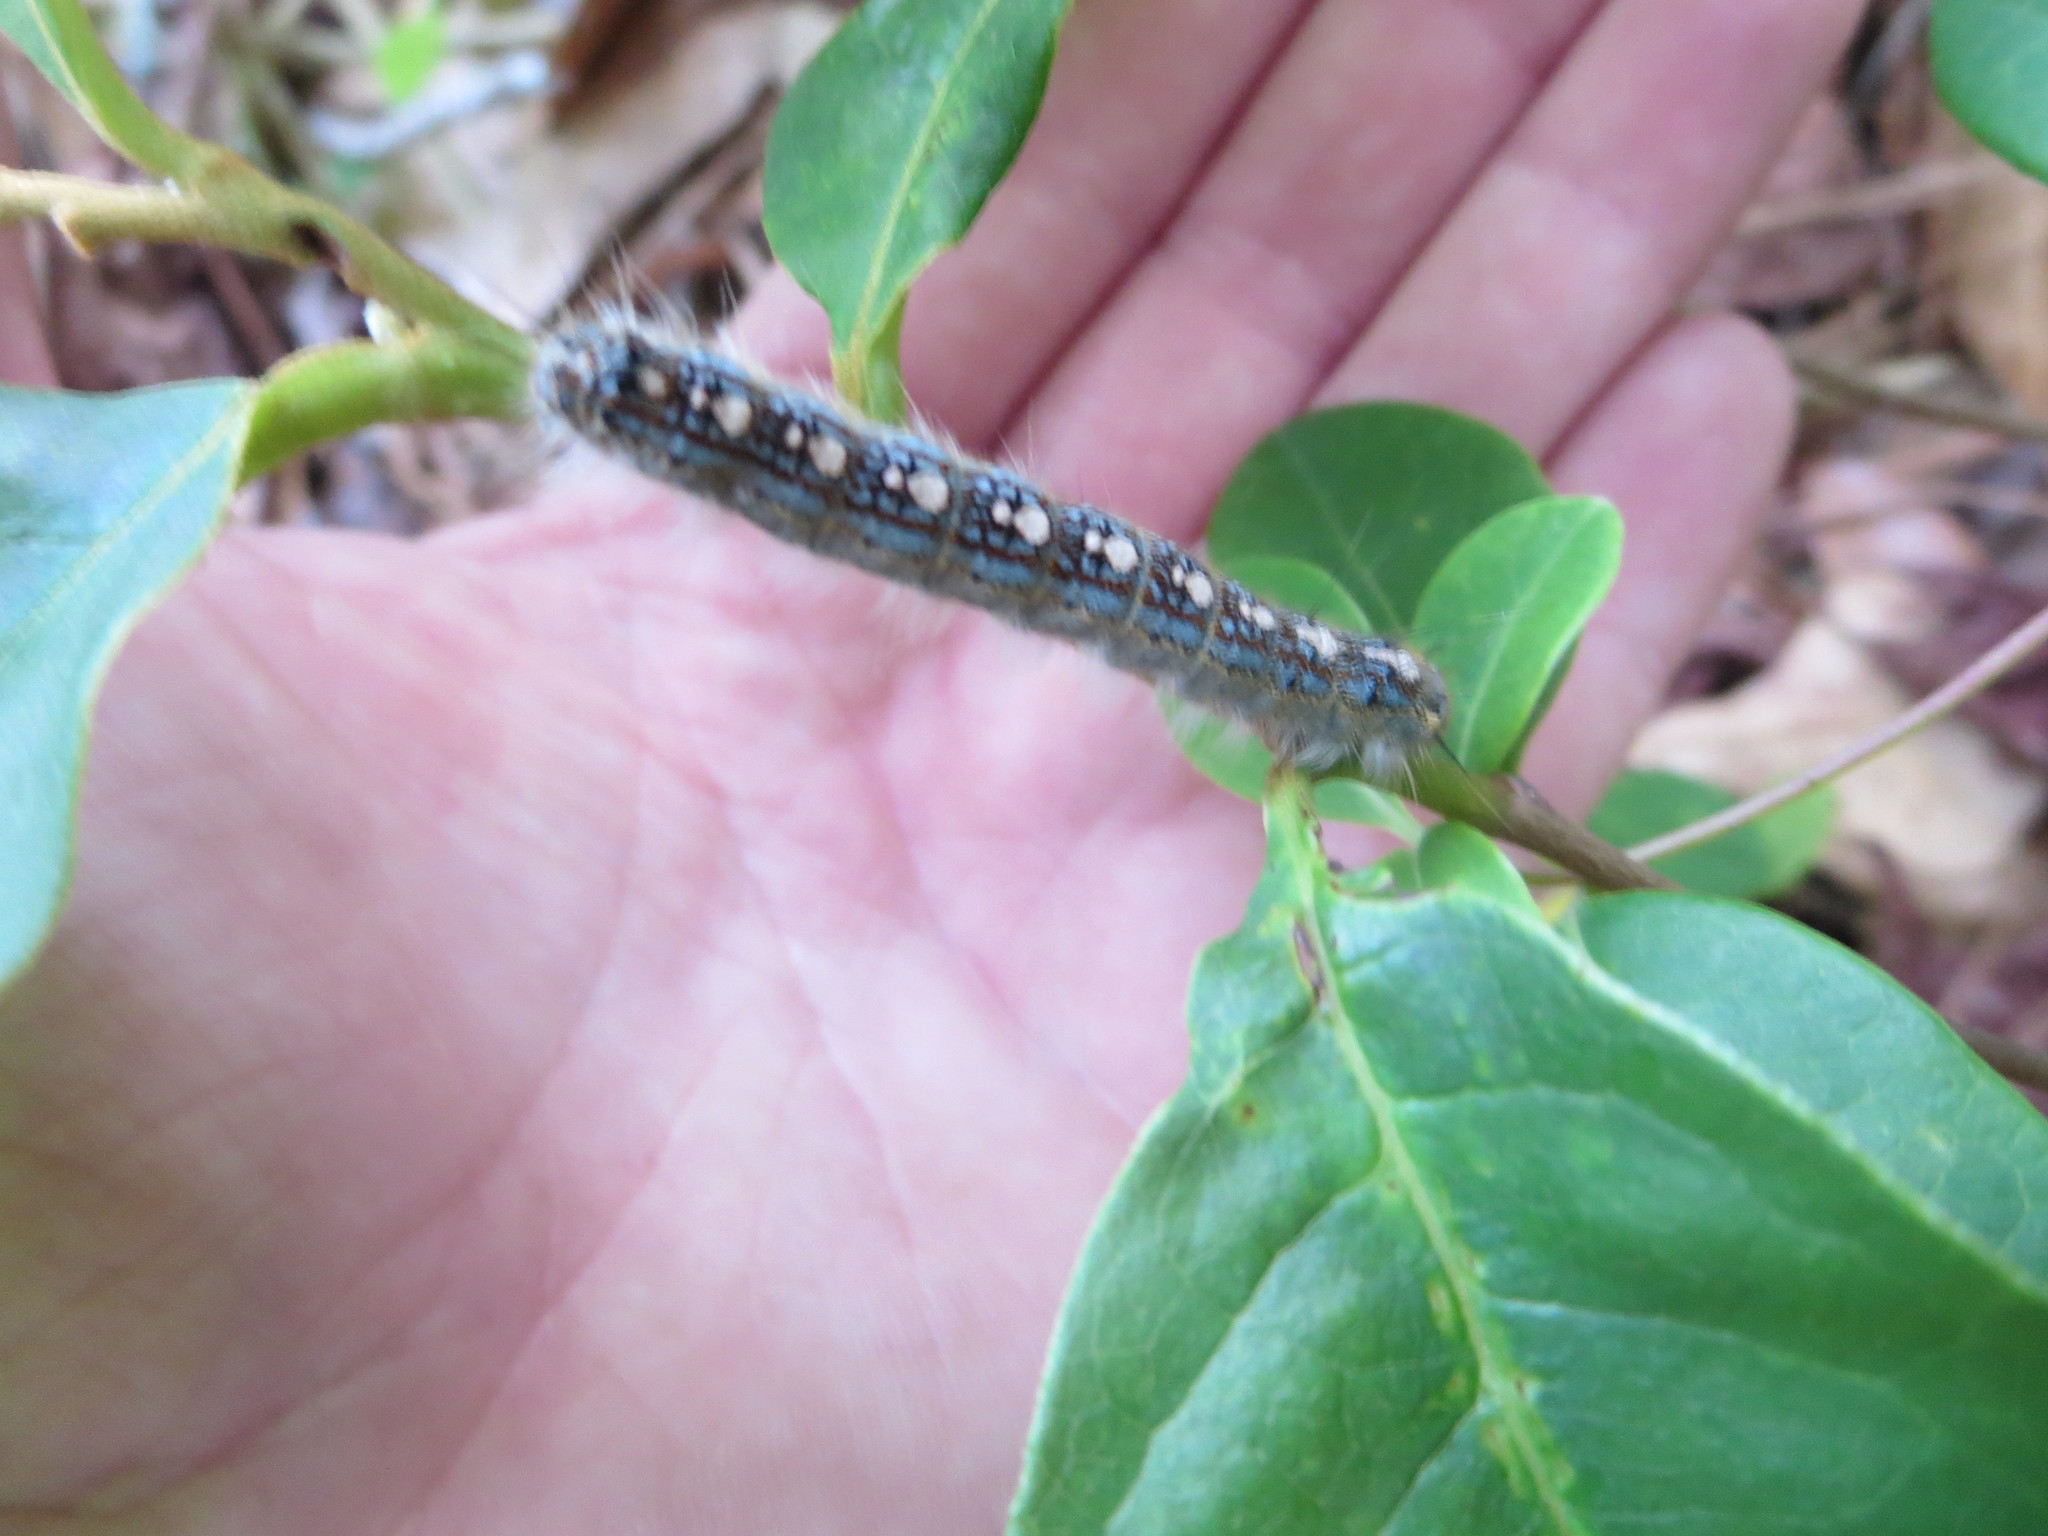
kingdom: Animalia
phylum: Arthropoda
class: Insecta
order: Lepidoptera
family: Lasiocampidae
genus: Malacosoma
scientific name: Malacosoma disstria
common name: Forest tent caterpillar
